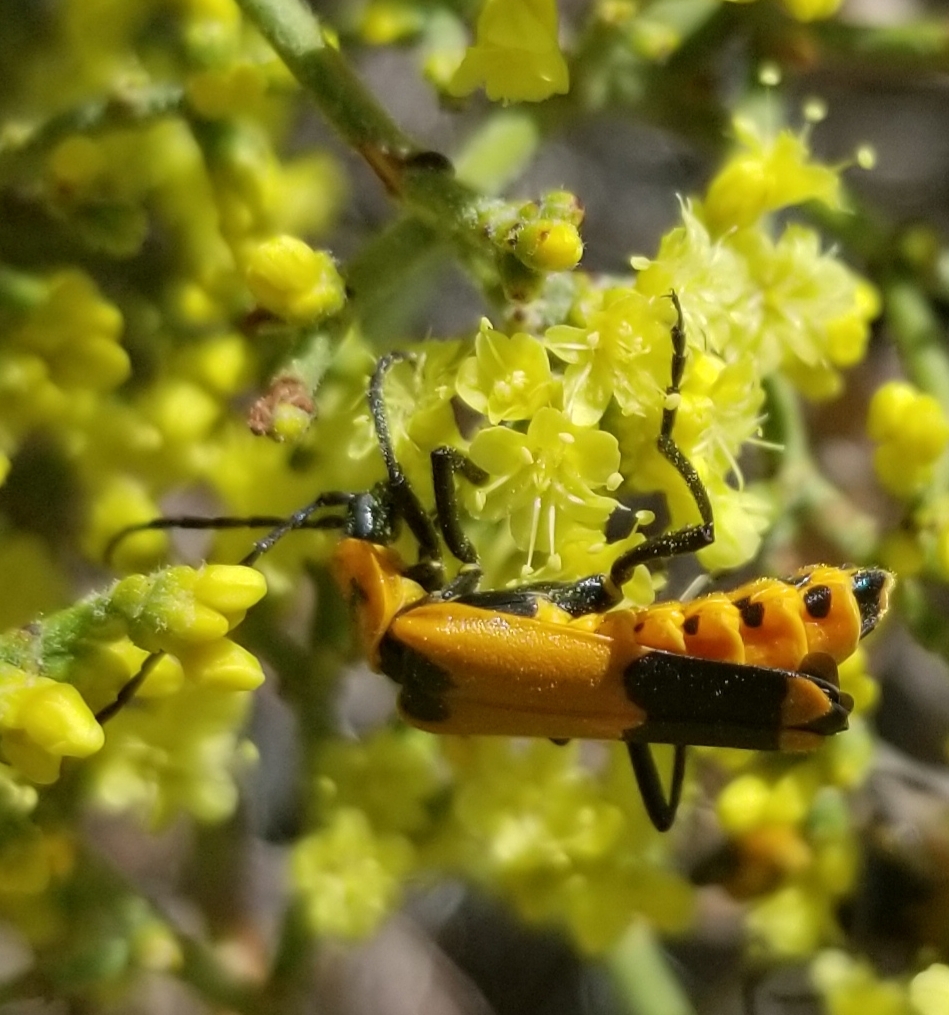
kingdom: Animalia
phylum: Arthropoda
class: Insecta
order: Coleoptera
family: Cantharidae
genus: Chauliognathus
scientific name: Chauliognathus fasciatus
